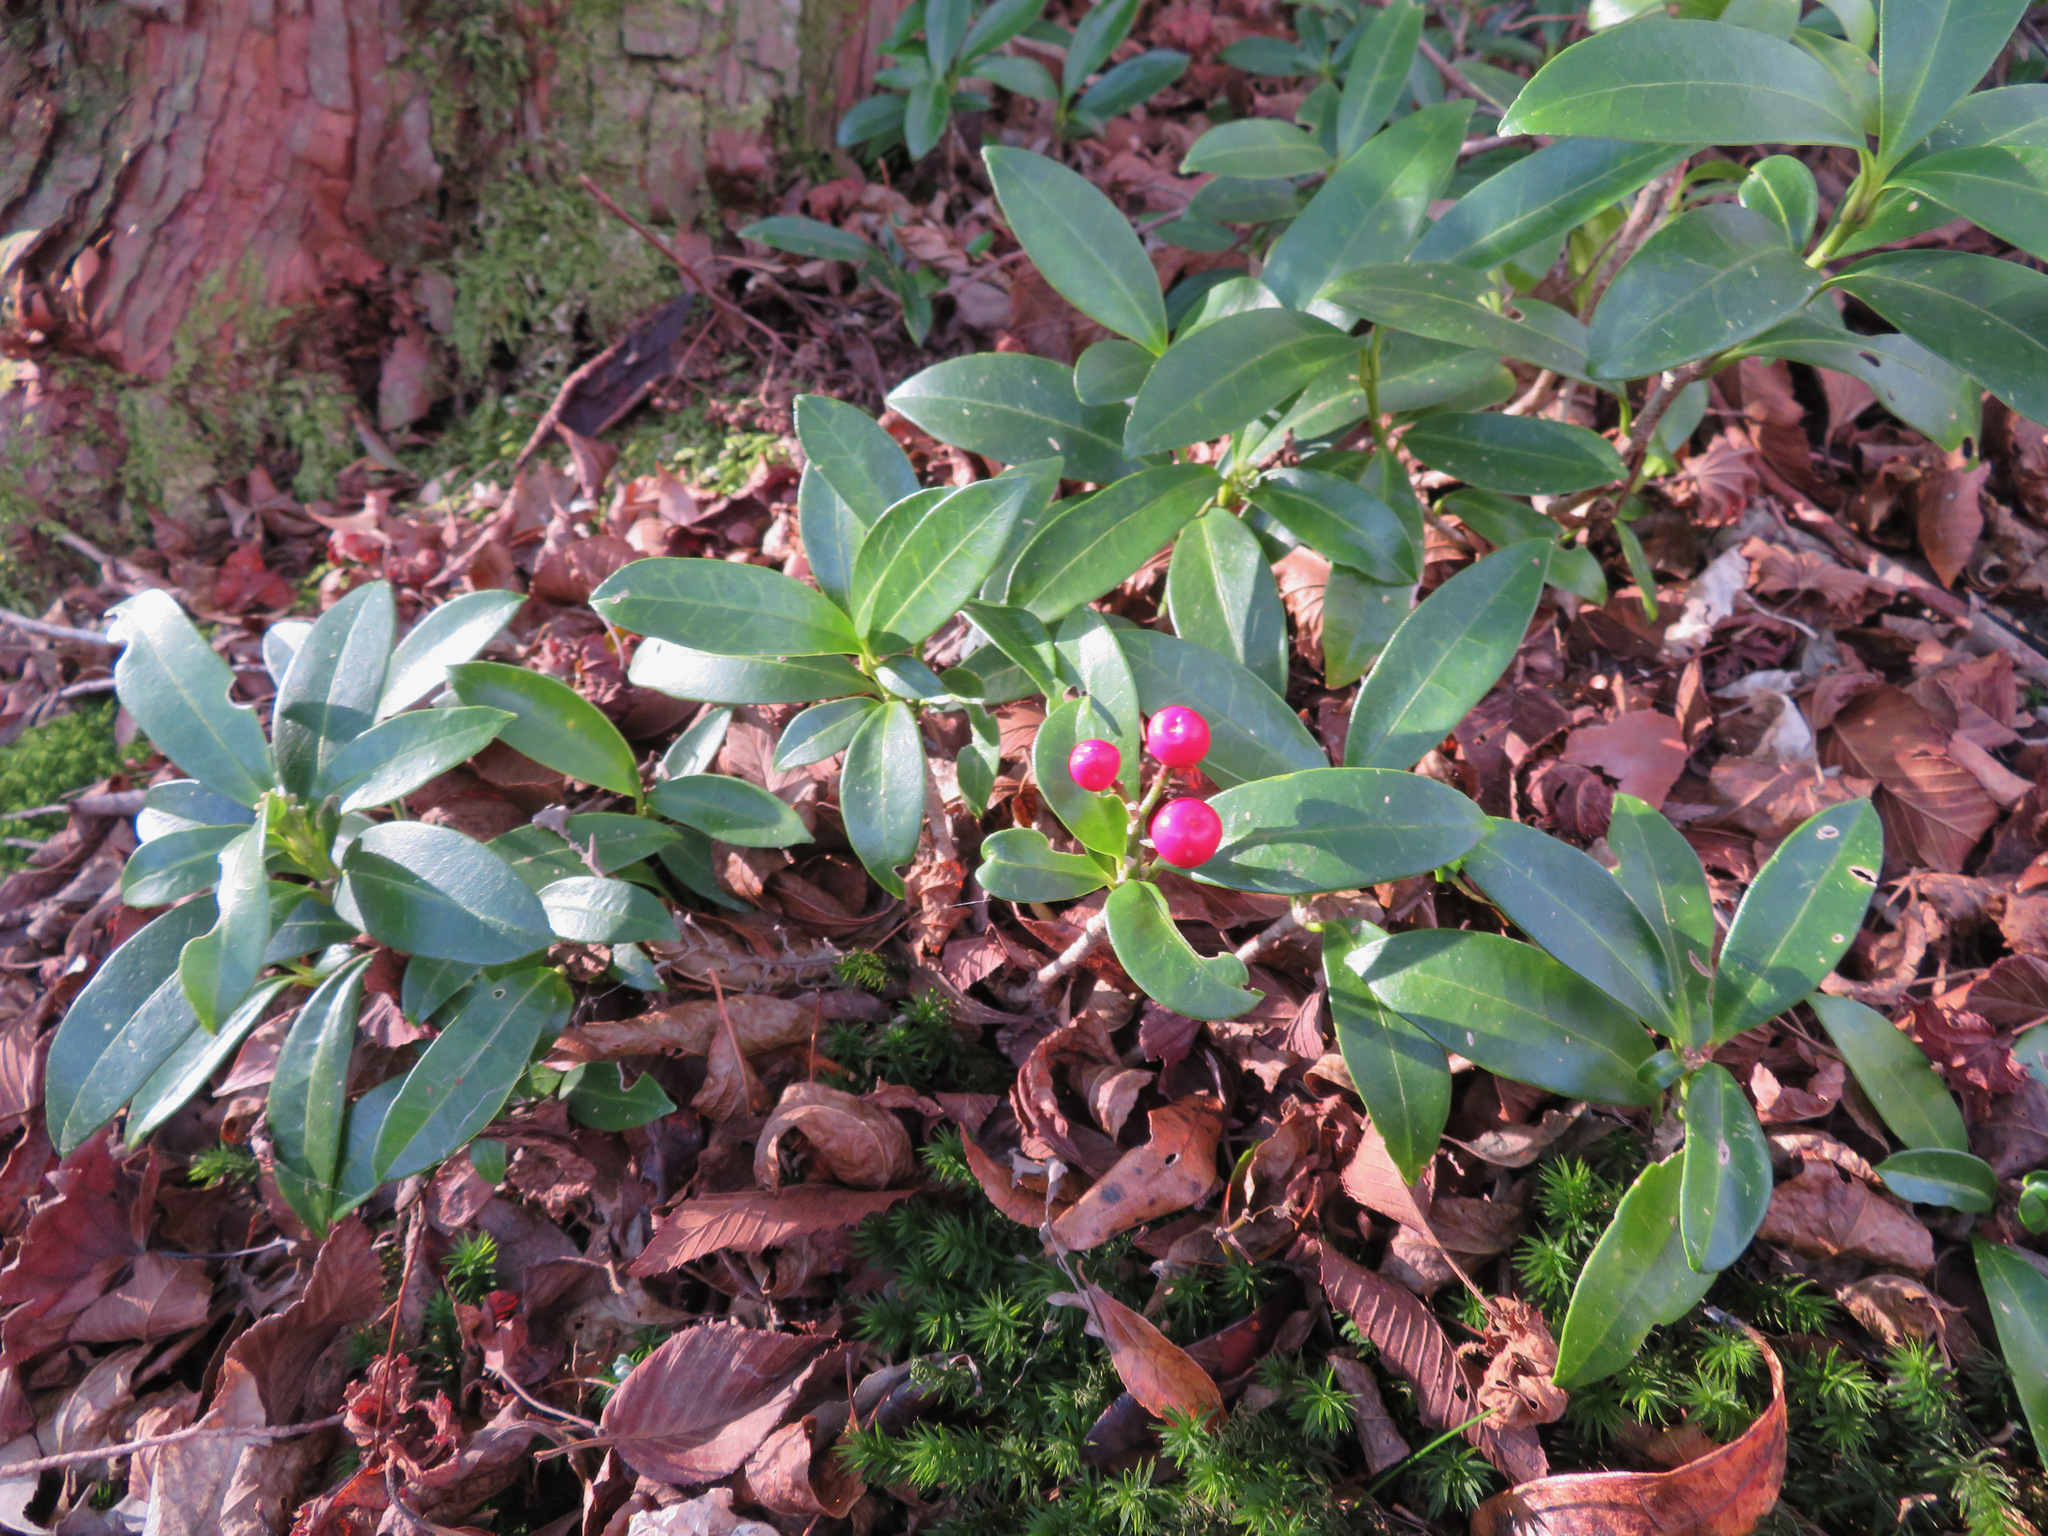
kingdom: Plantae
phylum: Tracheophyta
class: Magnoliopsida
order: Sapindales
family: Rutaceae
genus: Skimmia
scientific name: Skimmia japonica
